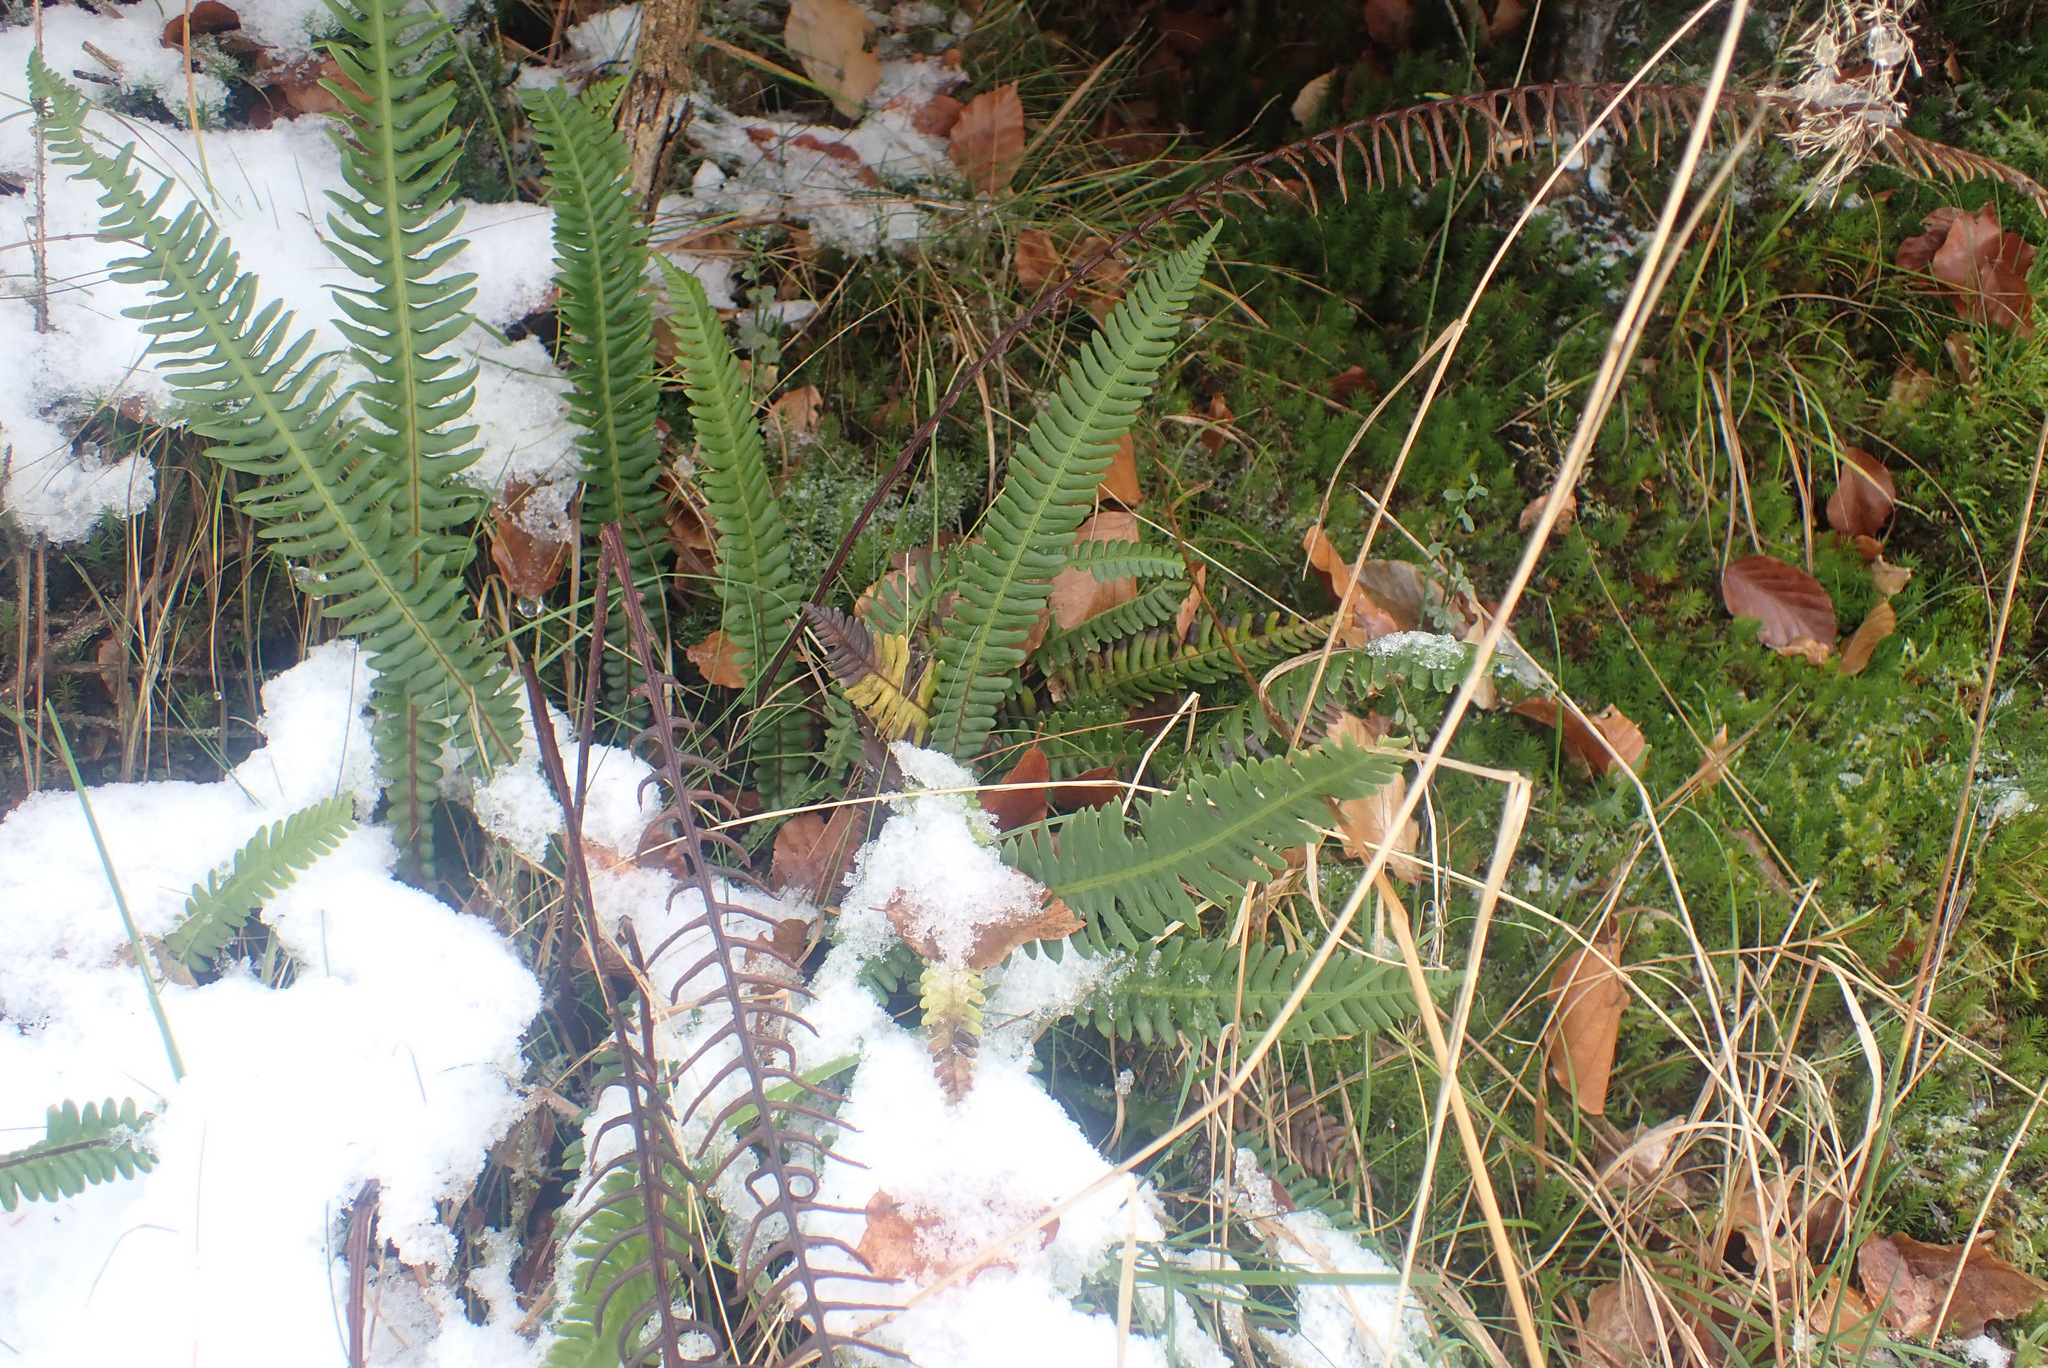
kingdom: Plantae
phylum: Tracheophyta
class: Polypodiopsida
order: Polypodiales
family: Blechnaceae
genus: Struthiopteris
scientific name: Struthiopteris spicant
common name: Deer fern
